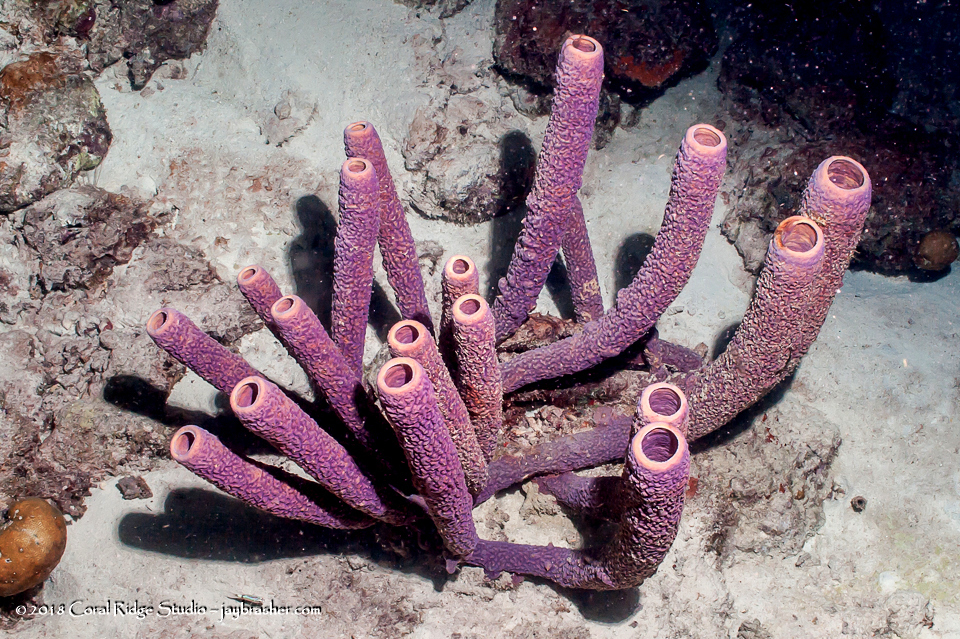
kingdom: Animalia
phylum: Porifera
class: Demospongiae
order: Verongiida
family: Aplysinidae
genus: Aplysina
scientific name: Aplysina archeri
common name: Stove-pipe sponge
